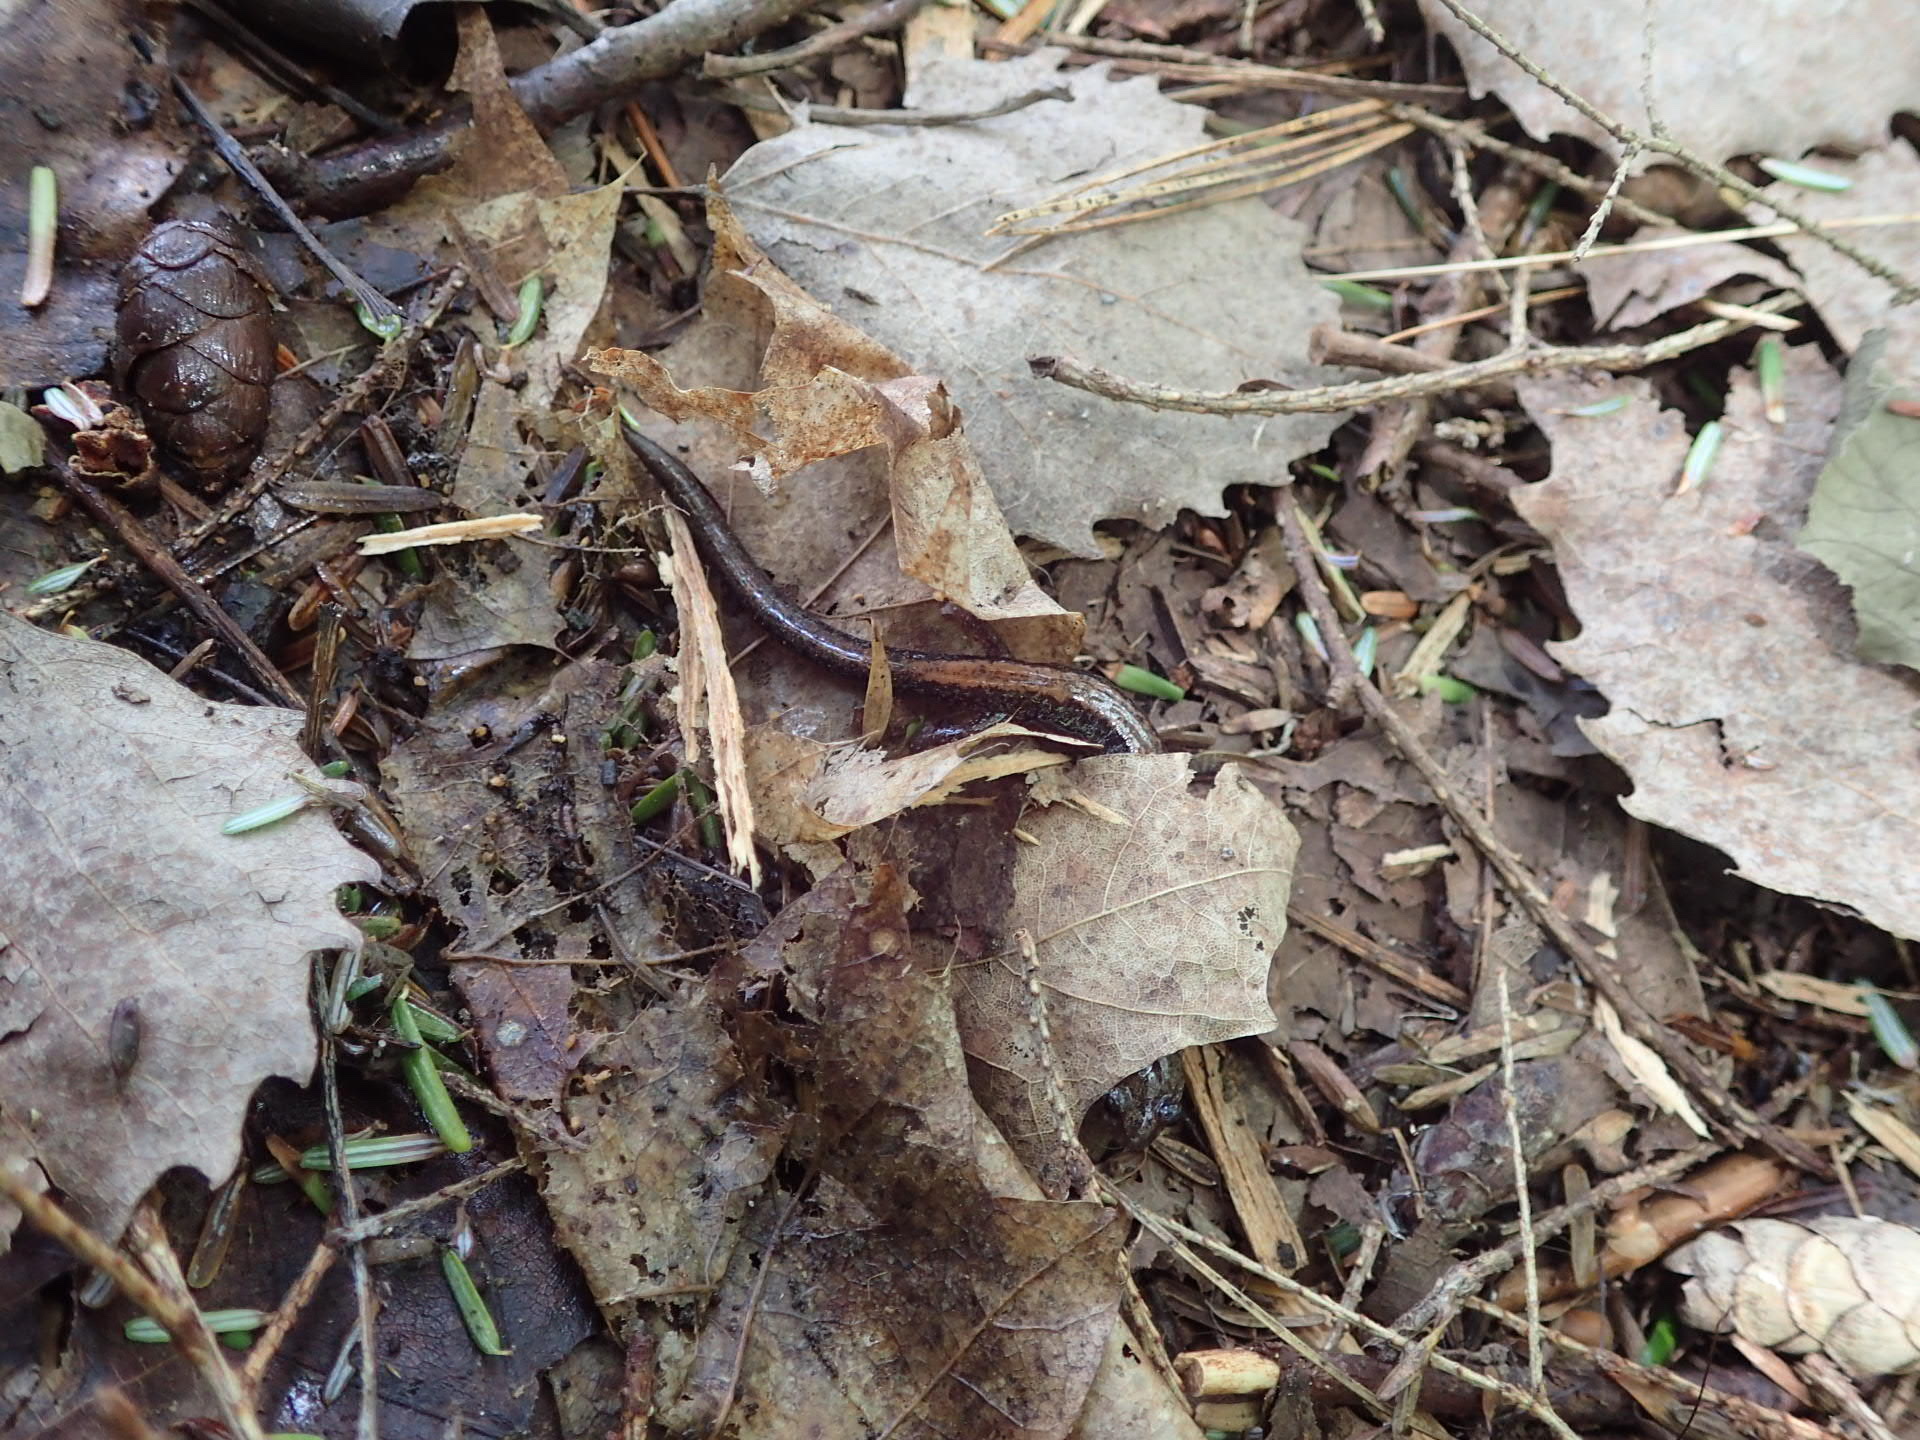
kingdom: Animalia
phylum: Chordata
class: Amphibia
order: Caudata
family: Plethodontidae
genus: Plethodon
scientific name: Plethodon cinereus
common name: Redback salamander
